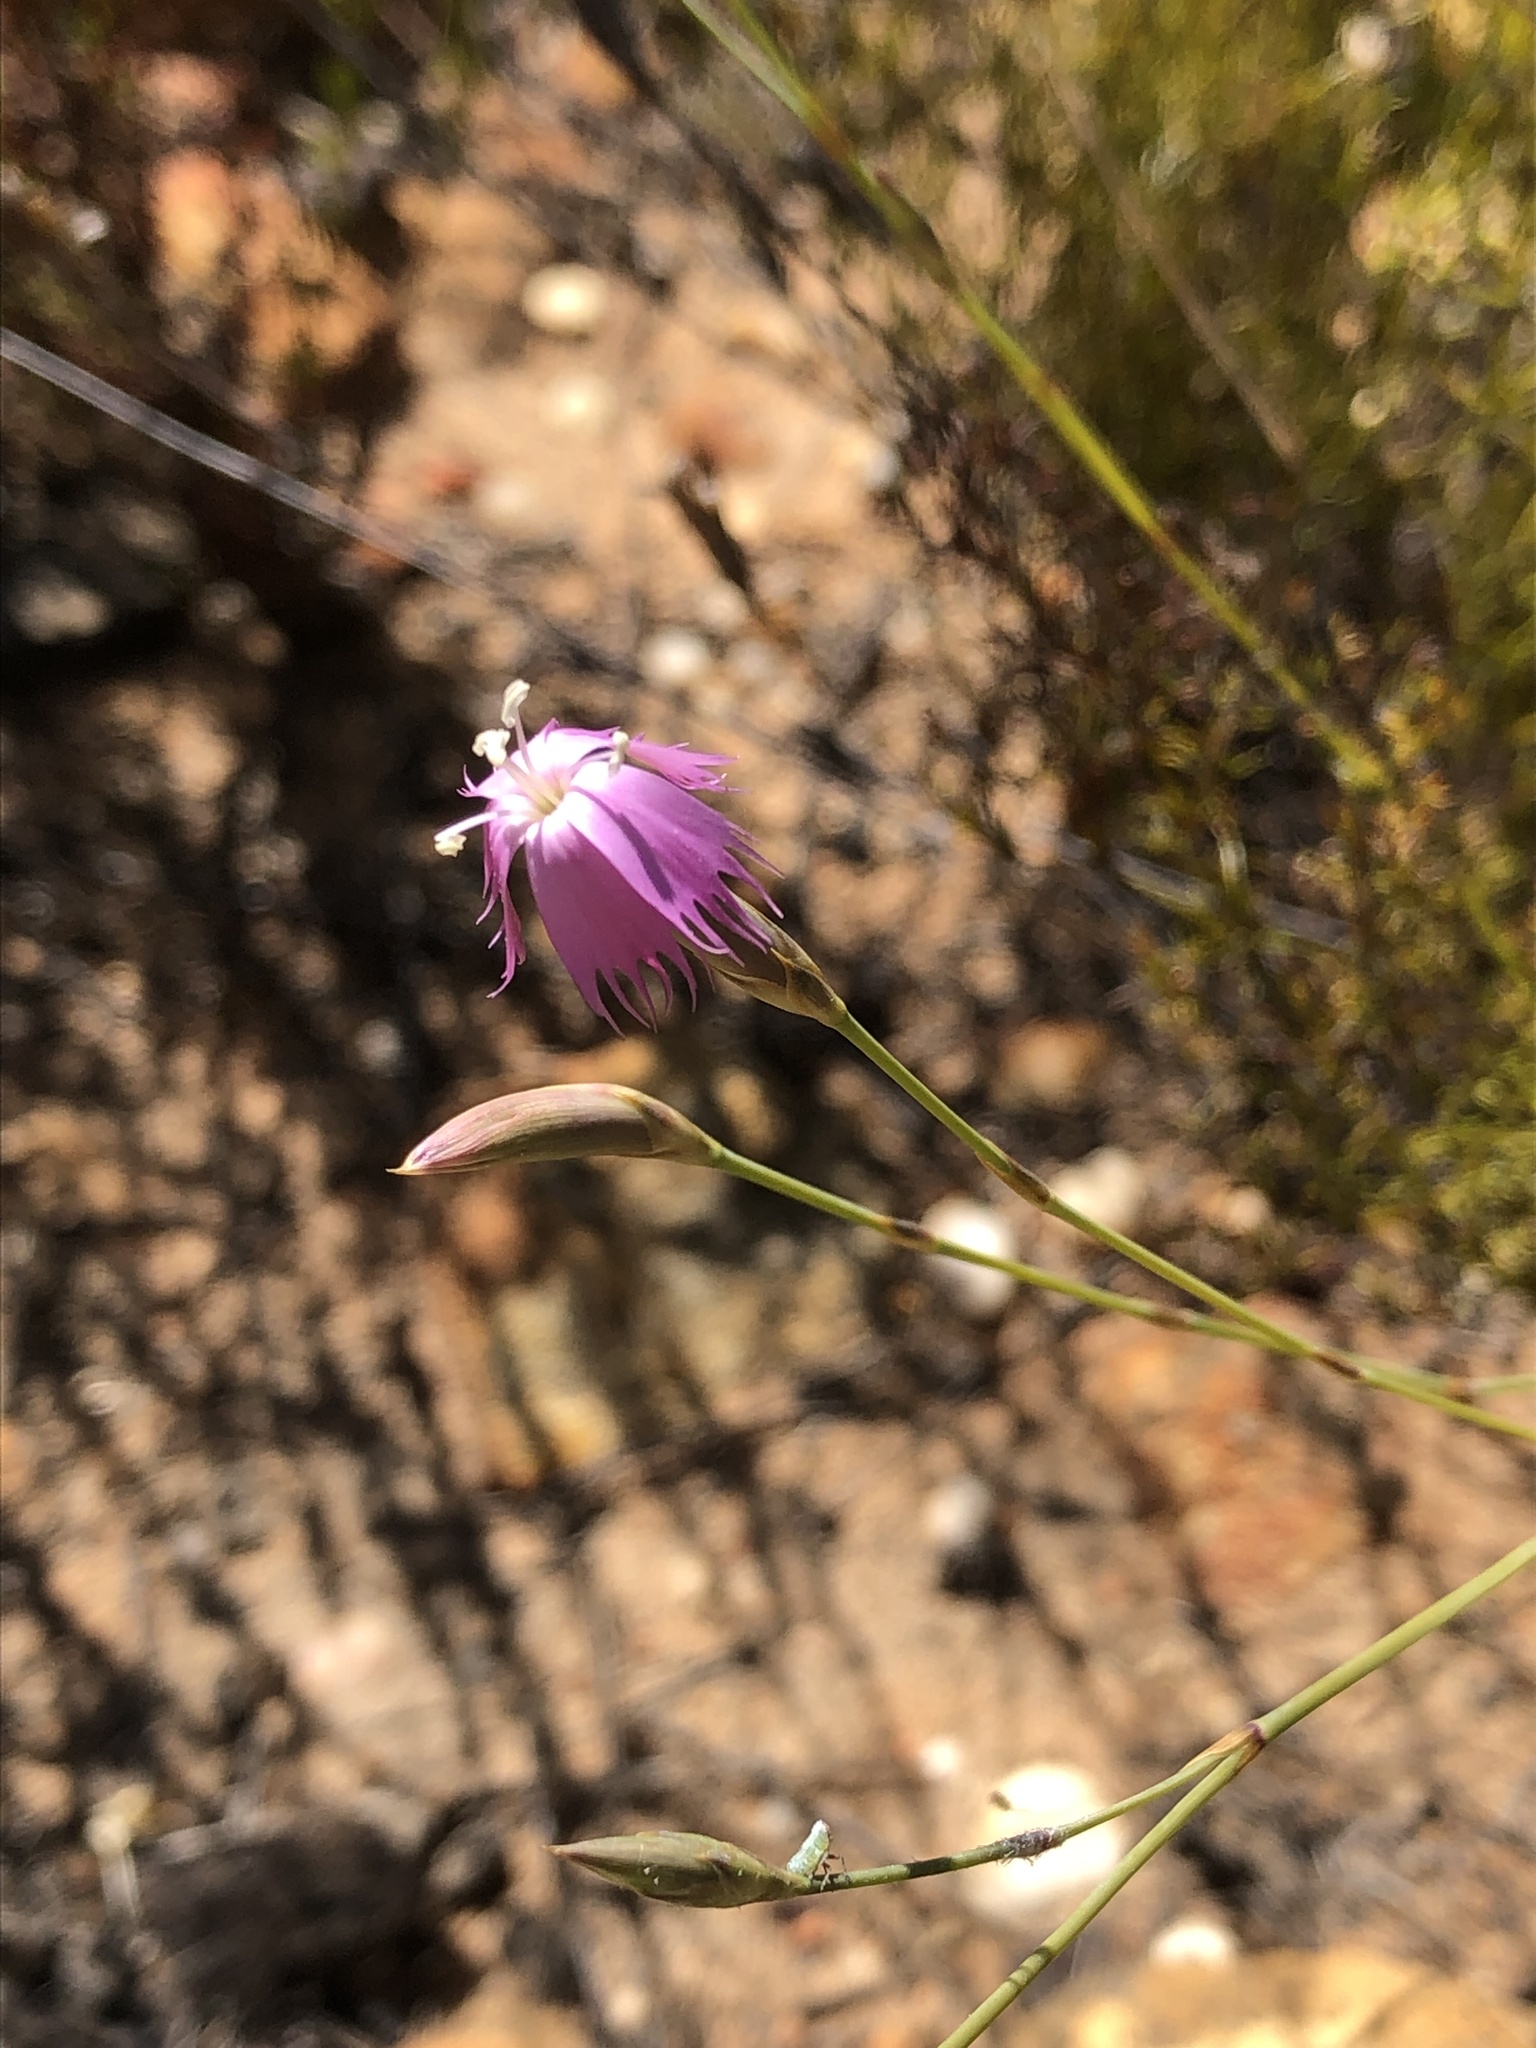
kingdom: Plantae
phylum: Tracheophyta
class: Magnoliopsida
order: Caryophyllales
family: Caryophyllaceae
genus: Dianthus
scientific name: Dianthus bolusii
